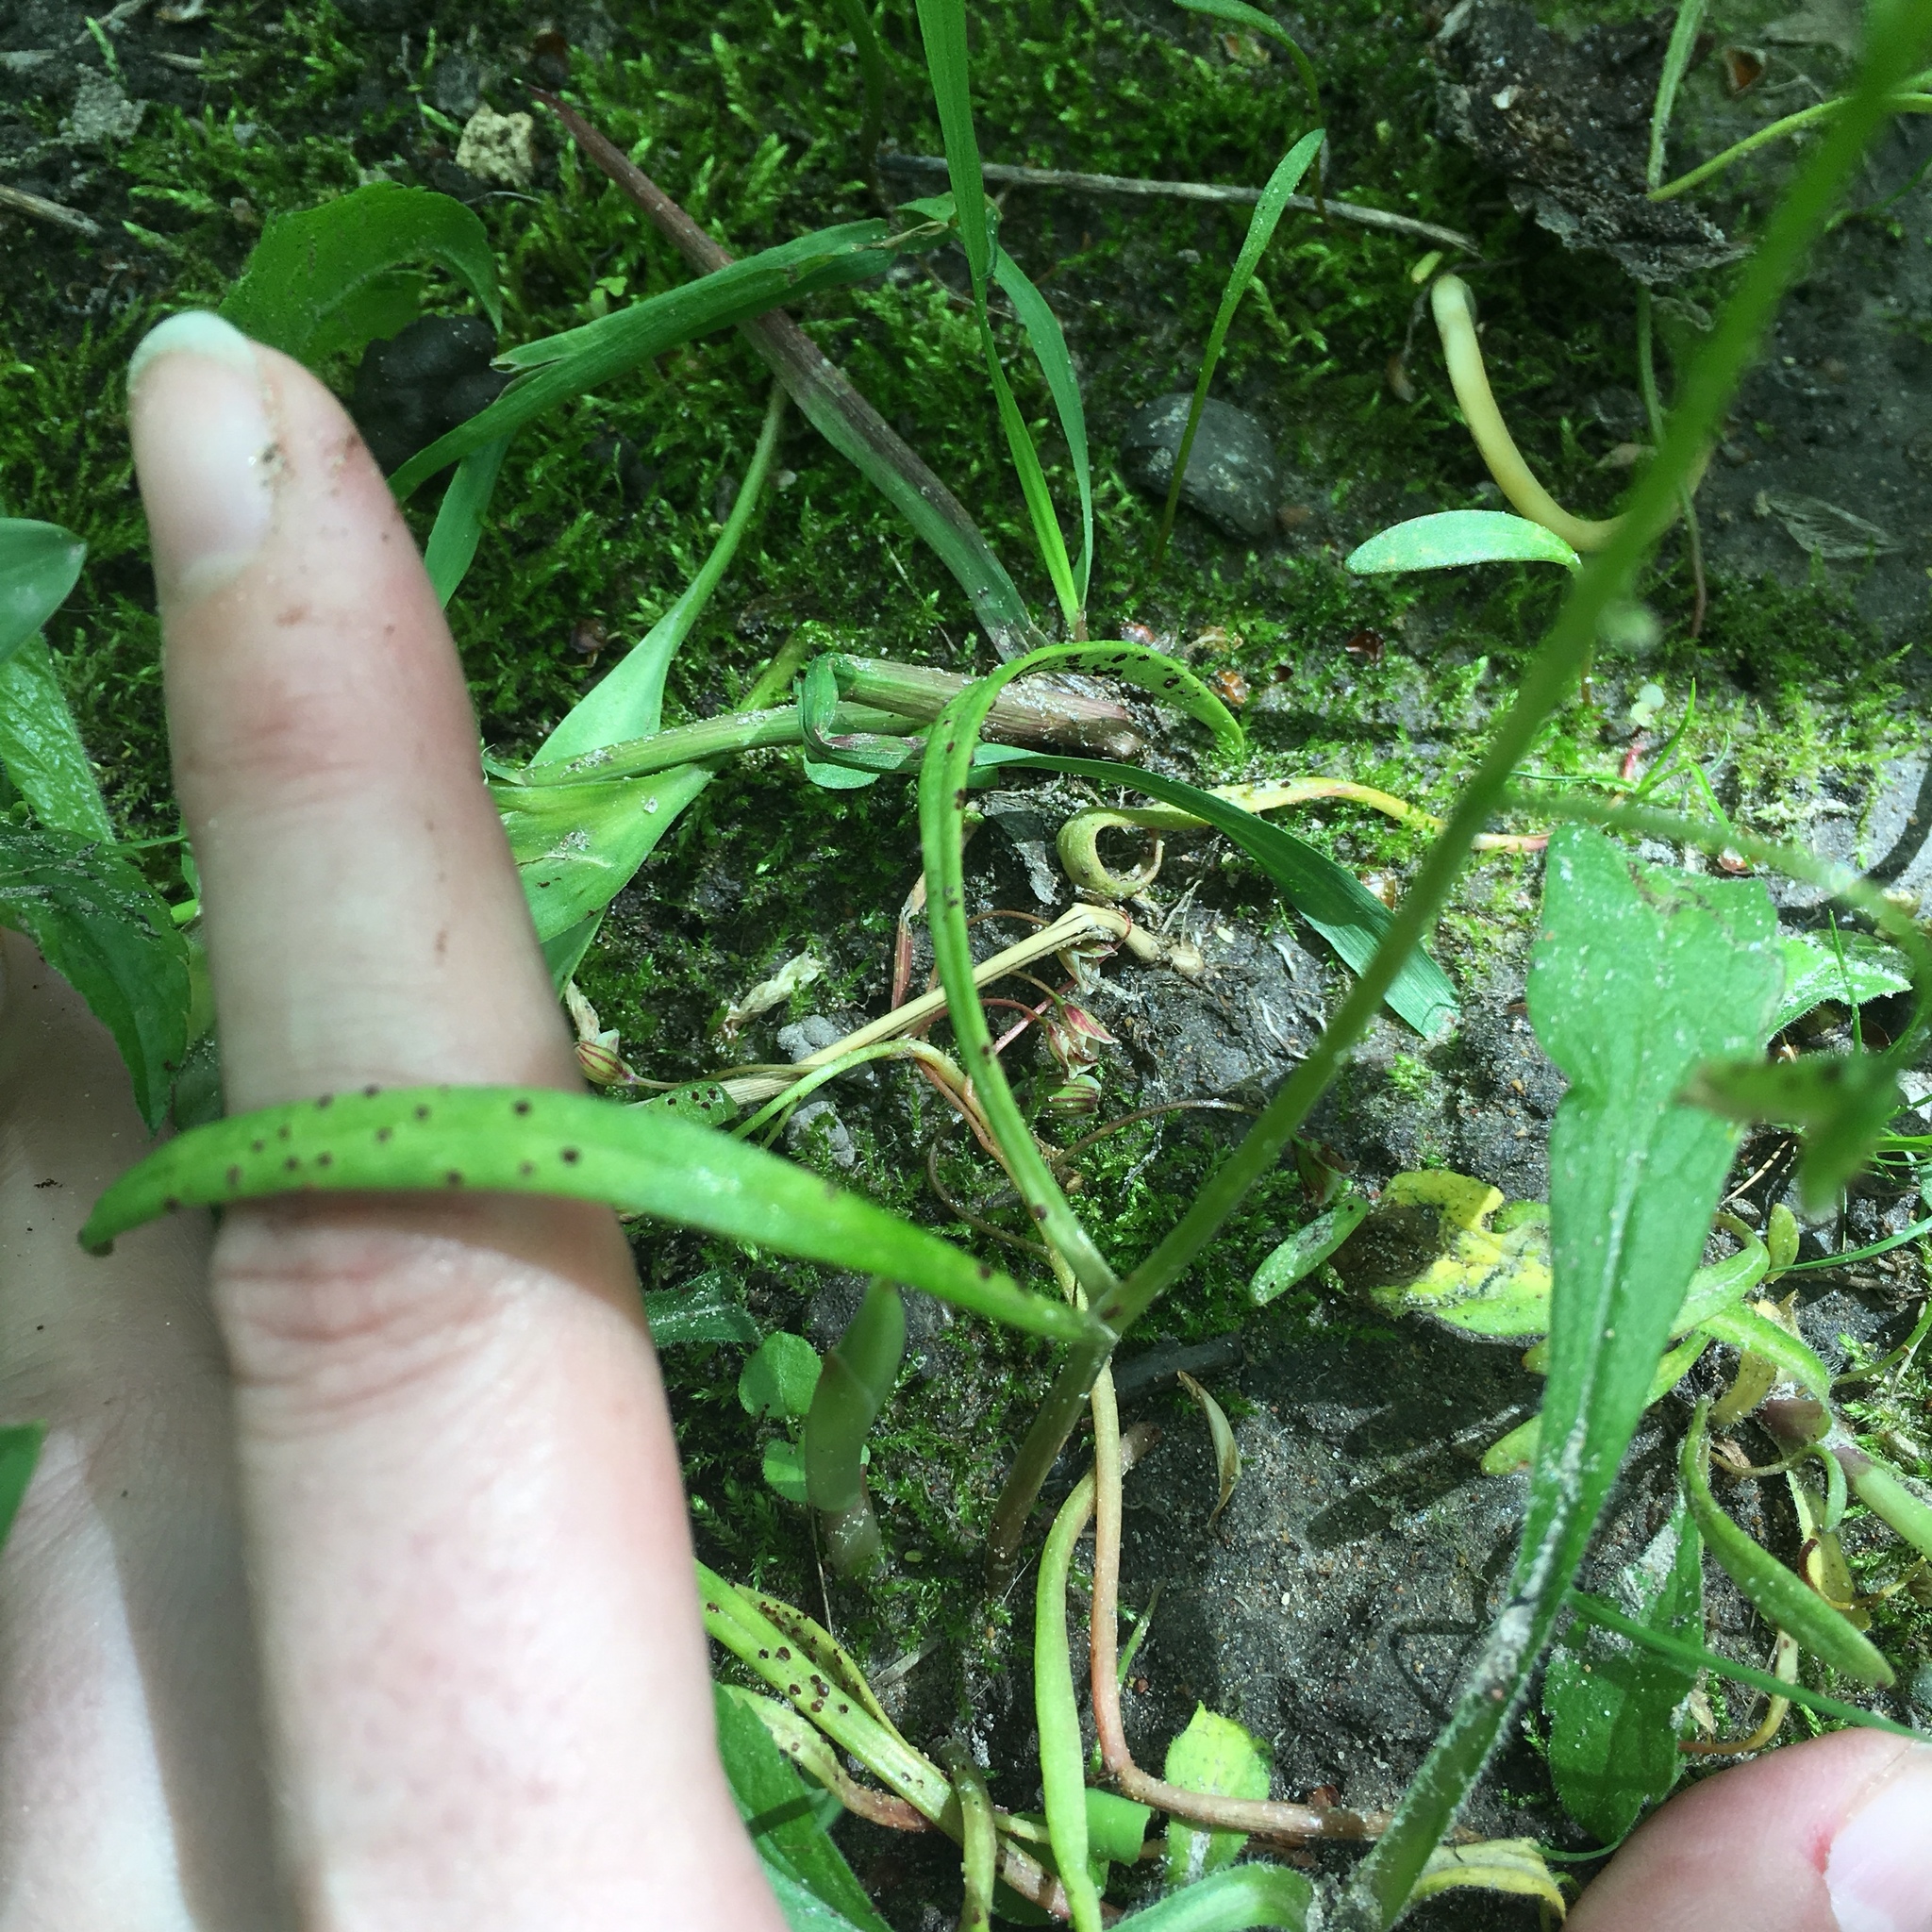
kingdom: Plantae
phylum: Tracheophyta
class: Magnoliopsida
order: Caryophyllales
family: Montiaceae
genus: Claytonia
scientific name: Claytonia virginica
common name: Virginia springbeauty
